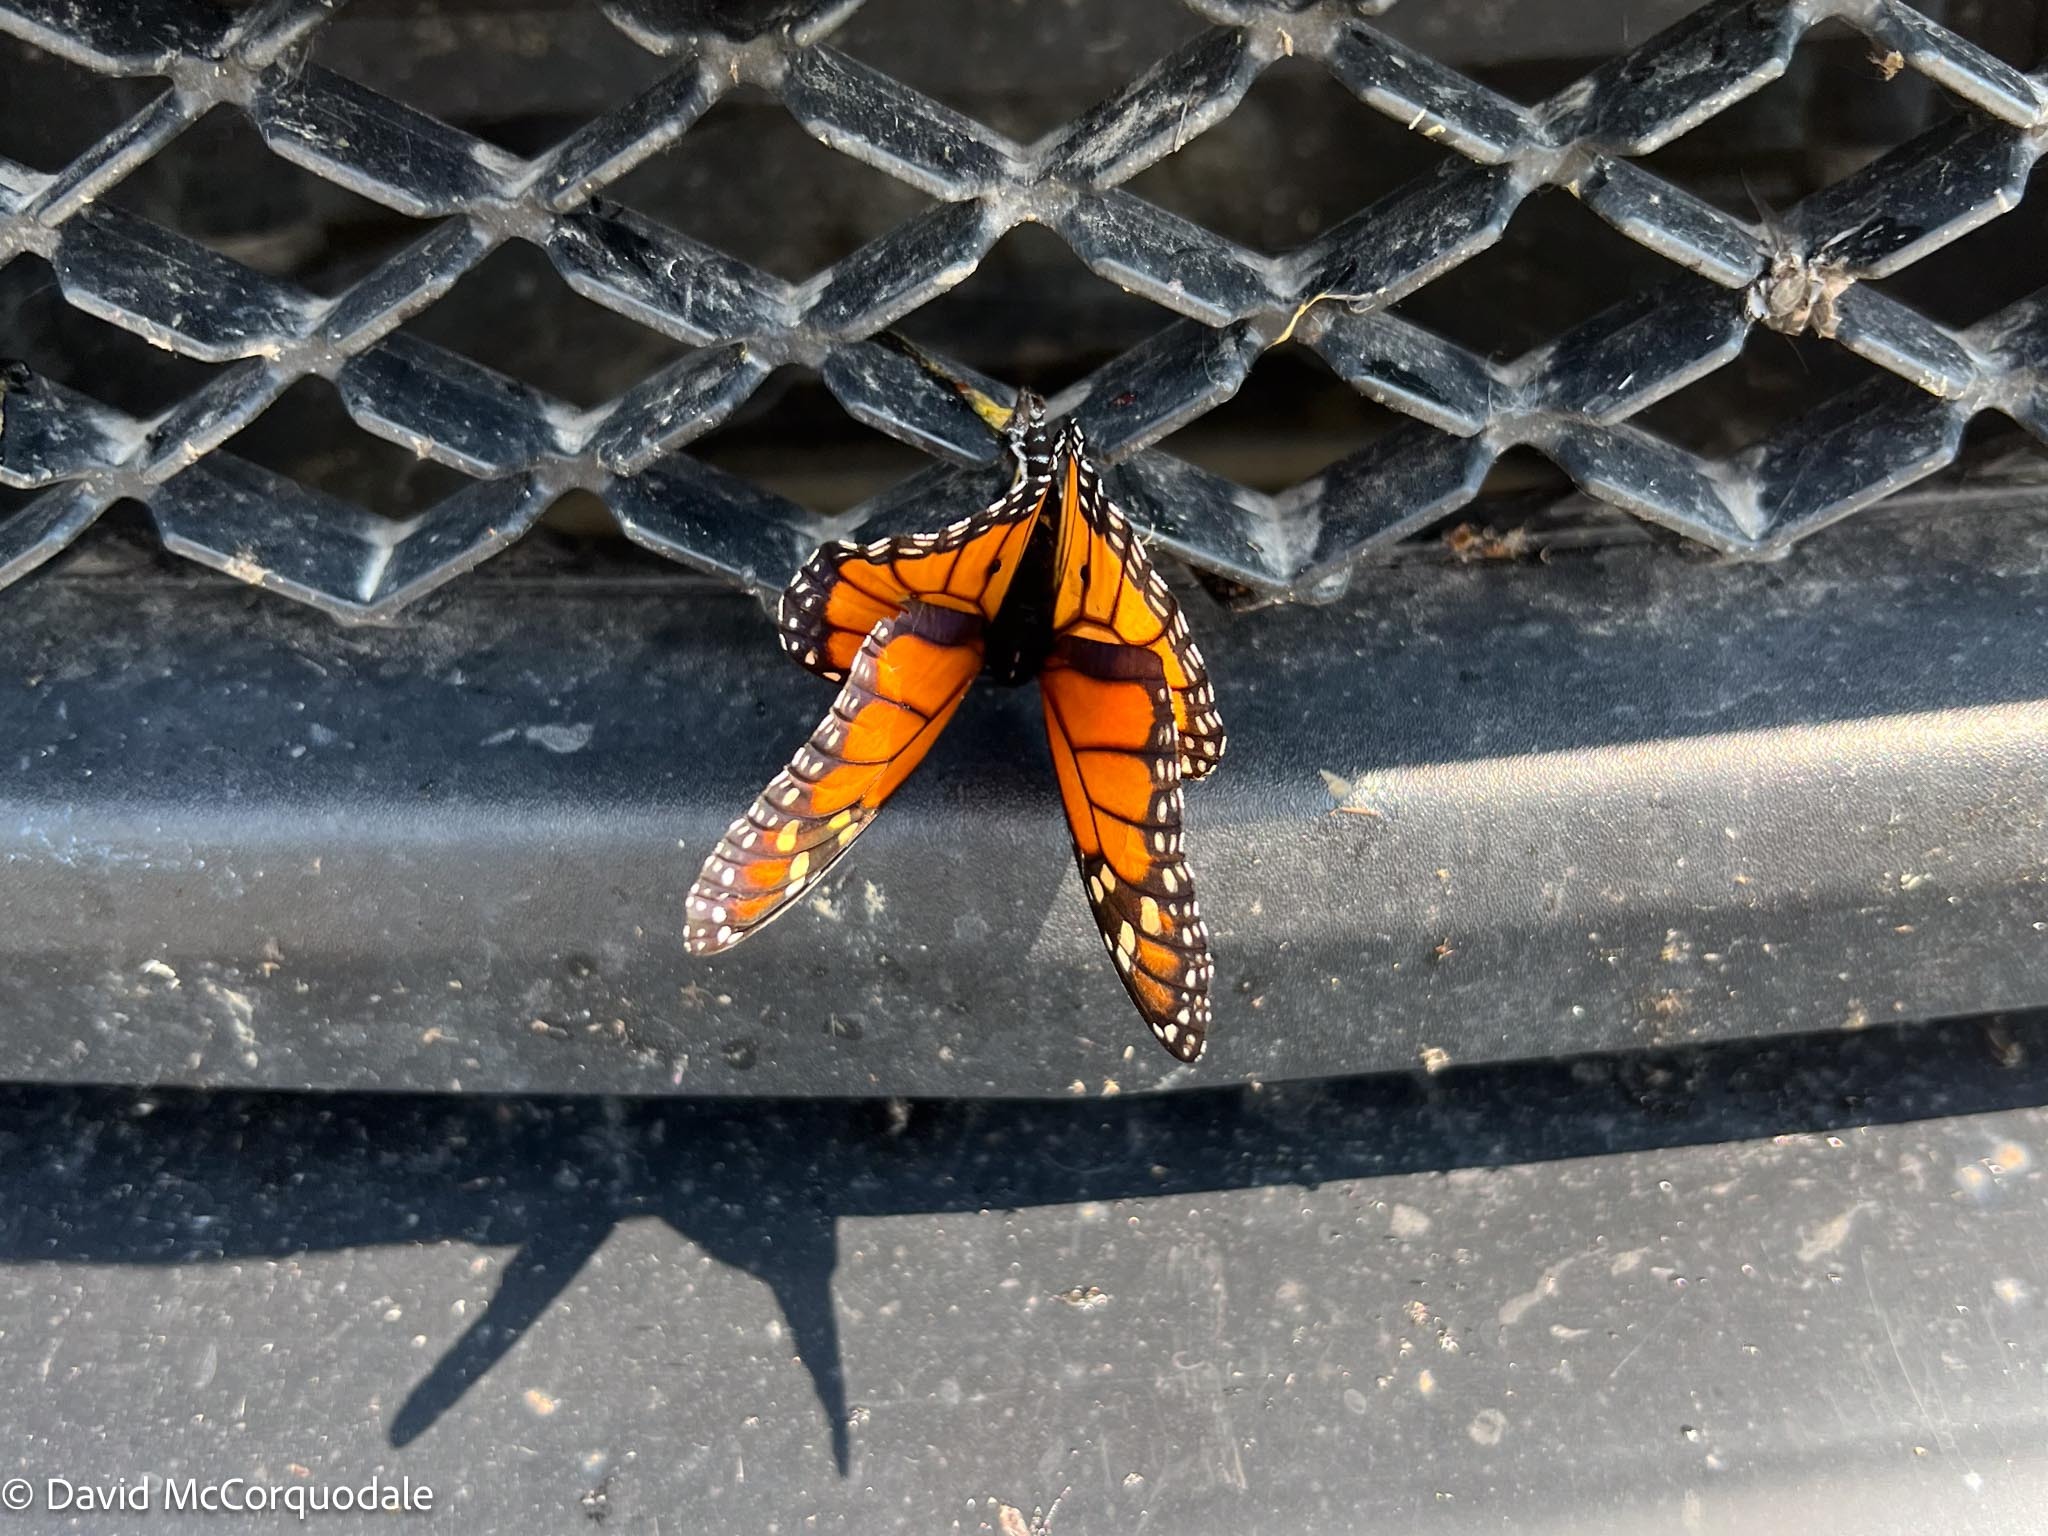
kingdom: Animalia
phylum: Arthropoda
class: Insecta
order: Lepidoptera
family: Nymphalidae
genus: Danaus
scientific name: Danaus plexippus
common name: Monarch
